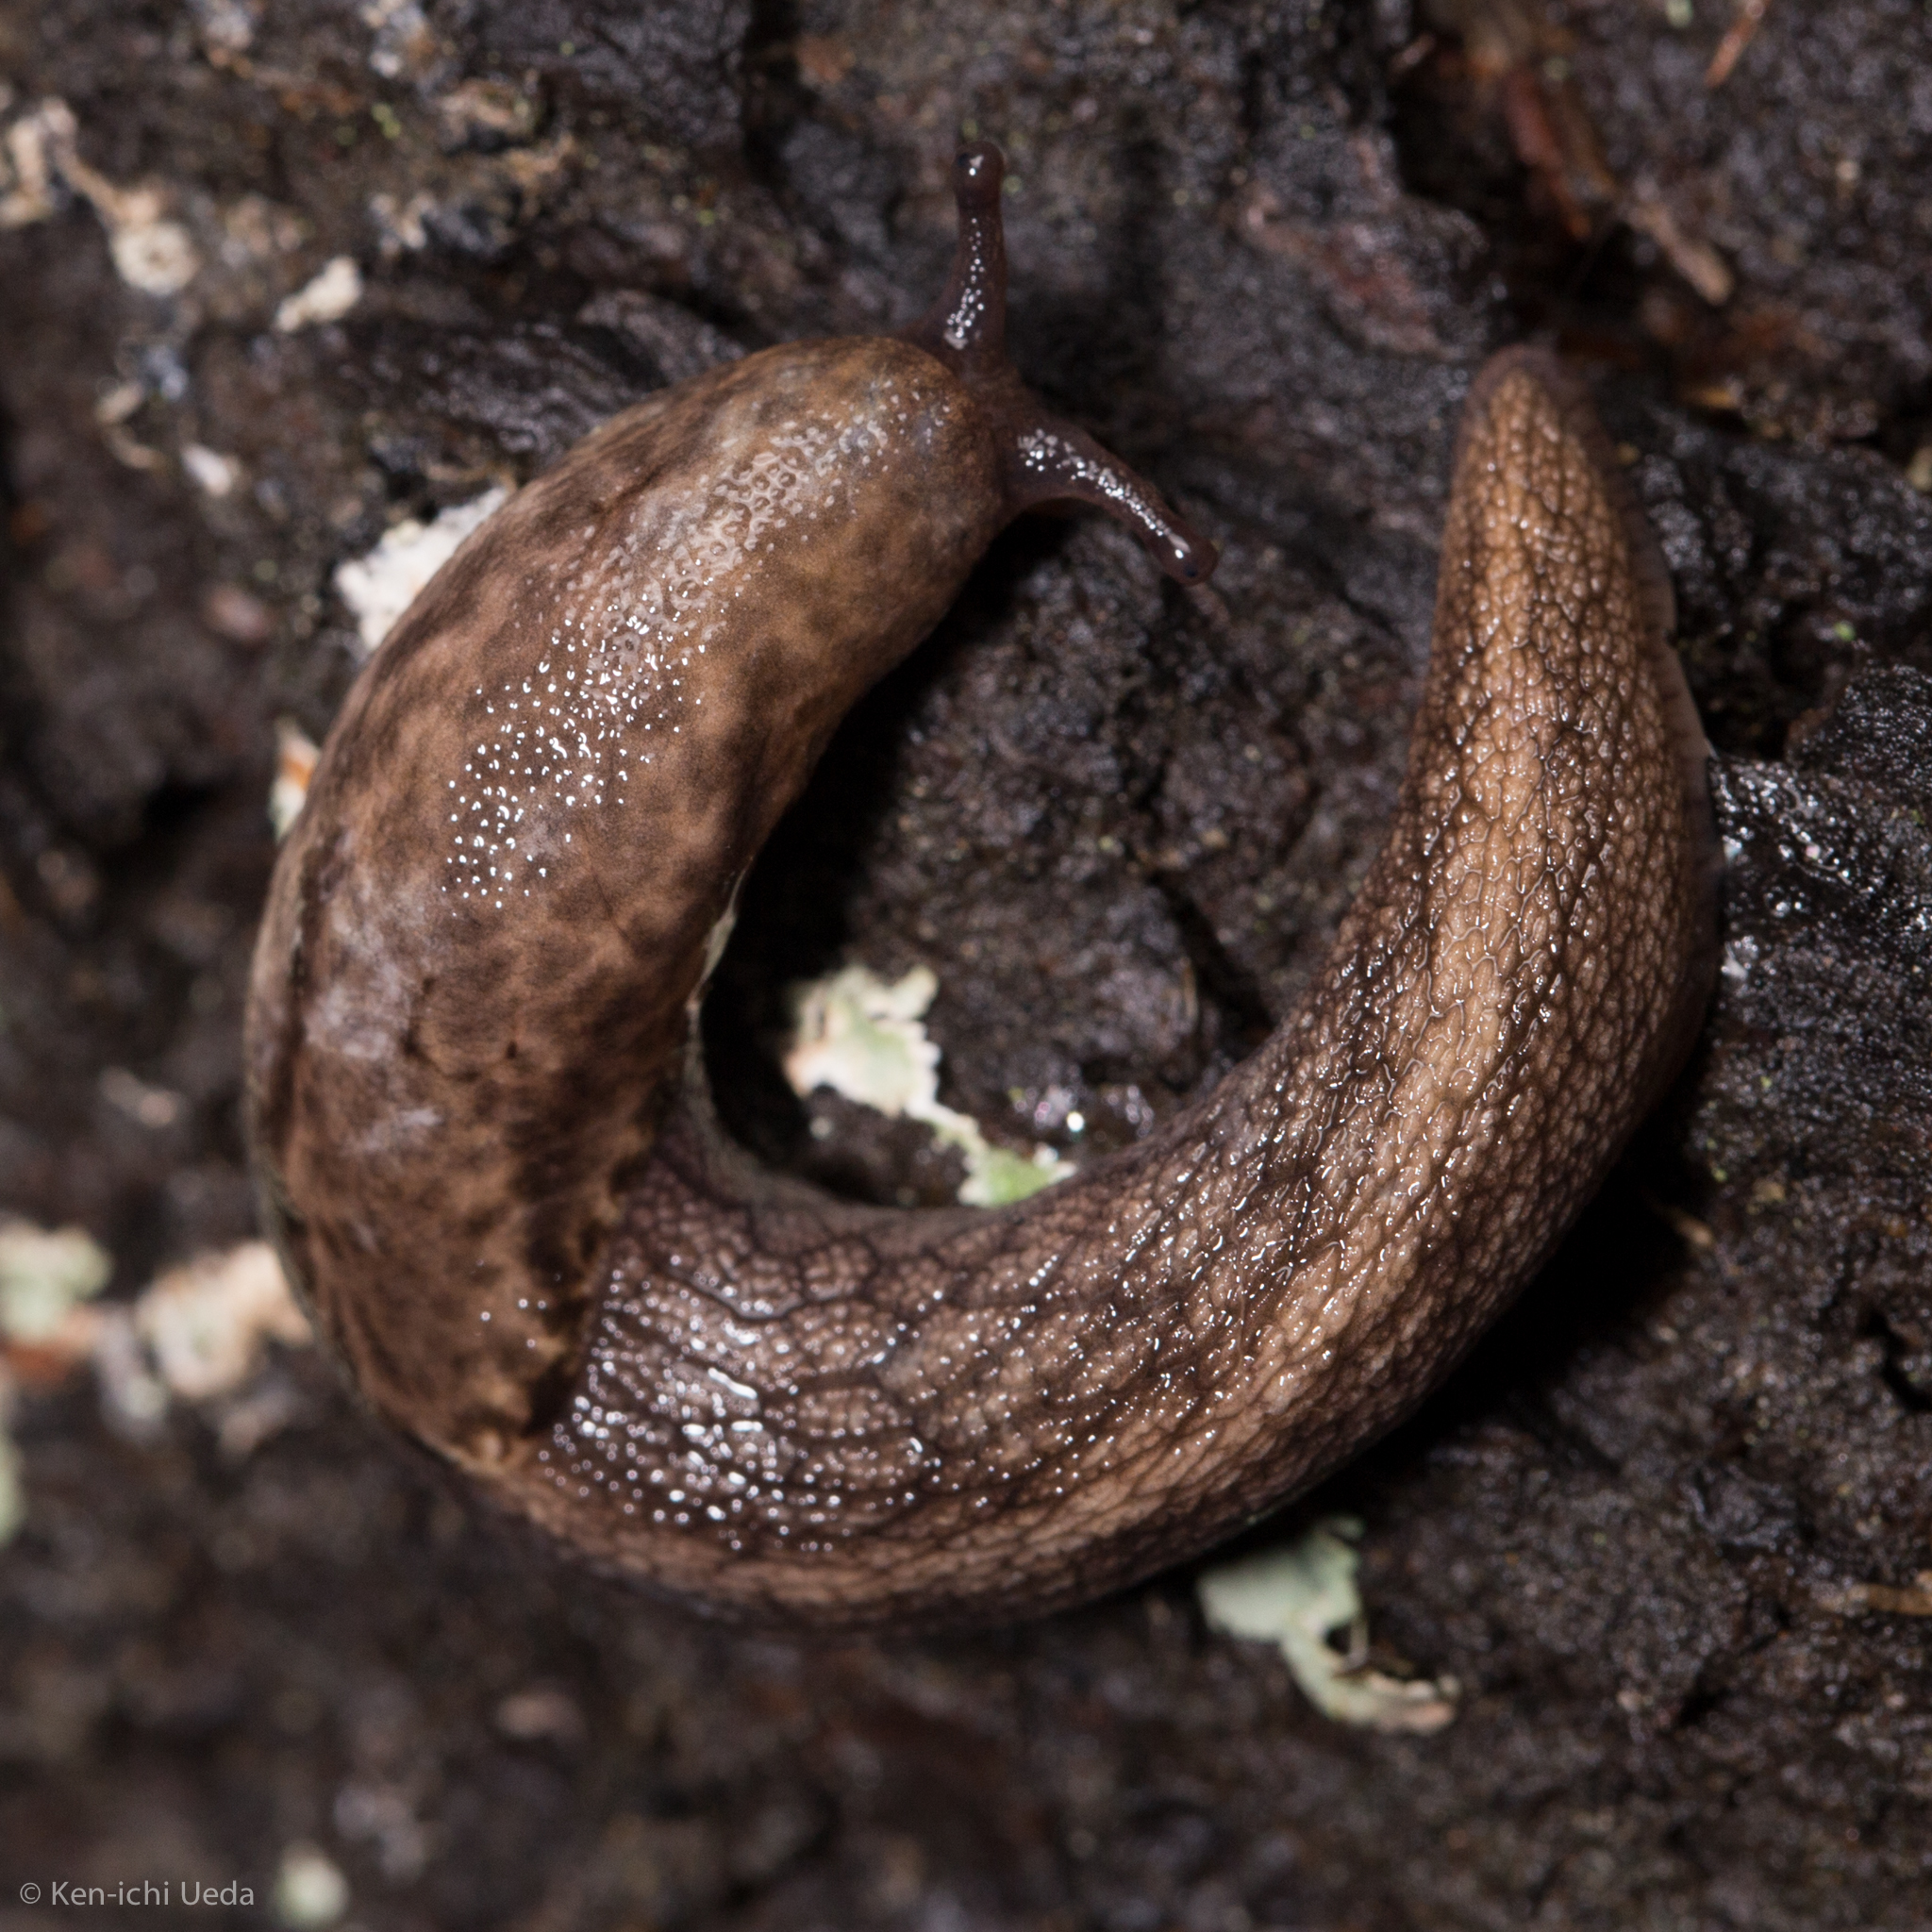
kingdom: Animalia
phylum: Mollusca
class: Gastropoda
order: Stylommatophora
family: Ariolimacidae
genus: Prophysaon
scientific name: Prophysaon andersonii
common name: Reticulate taildropper
